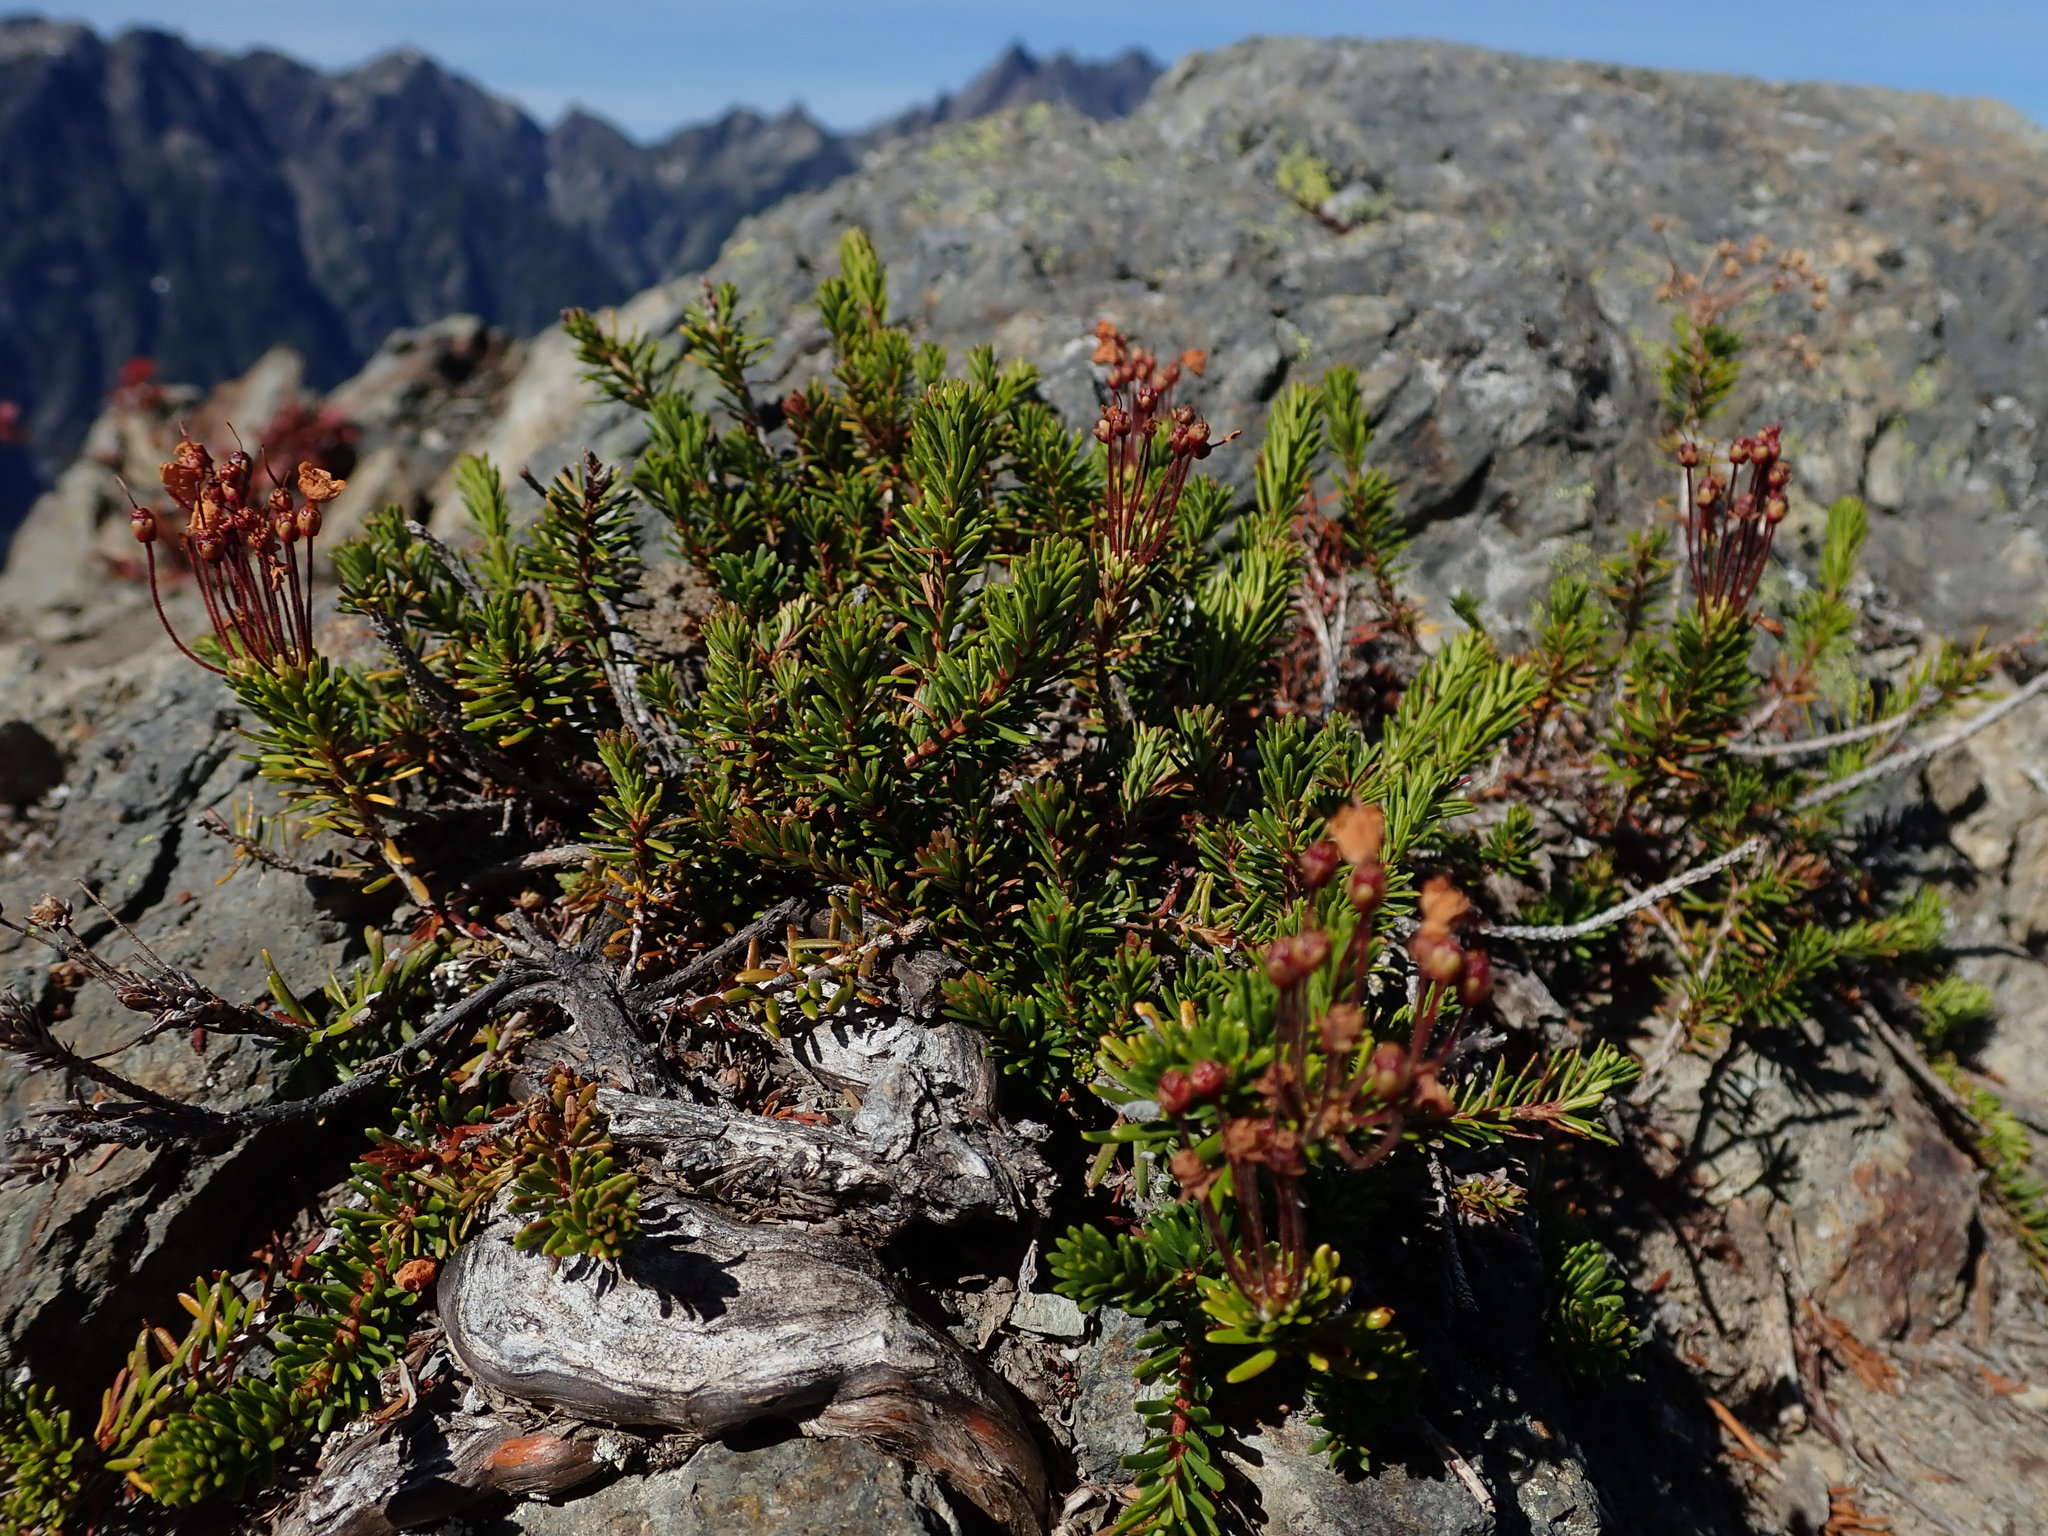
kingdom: Plantae
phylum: Tracheophyta
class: Magnoliopsida
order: Ericales
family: Ericaceae
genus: Phyllodoce
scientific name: Phyllodoce empetriformis
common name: Pink mountain heather
